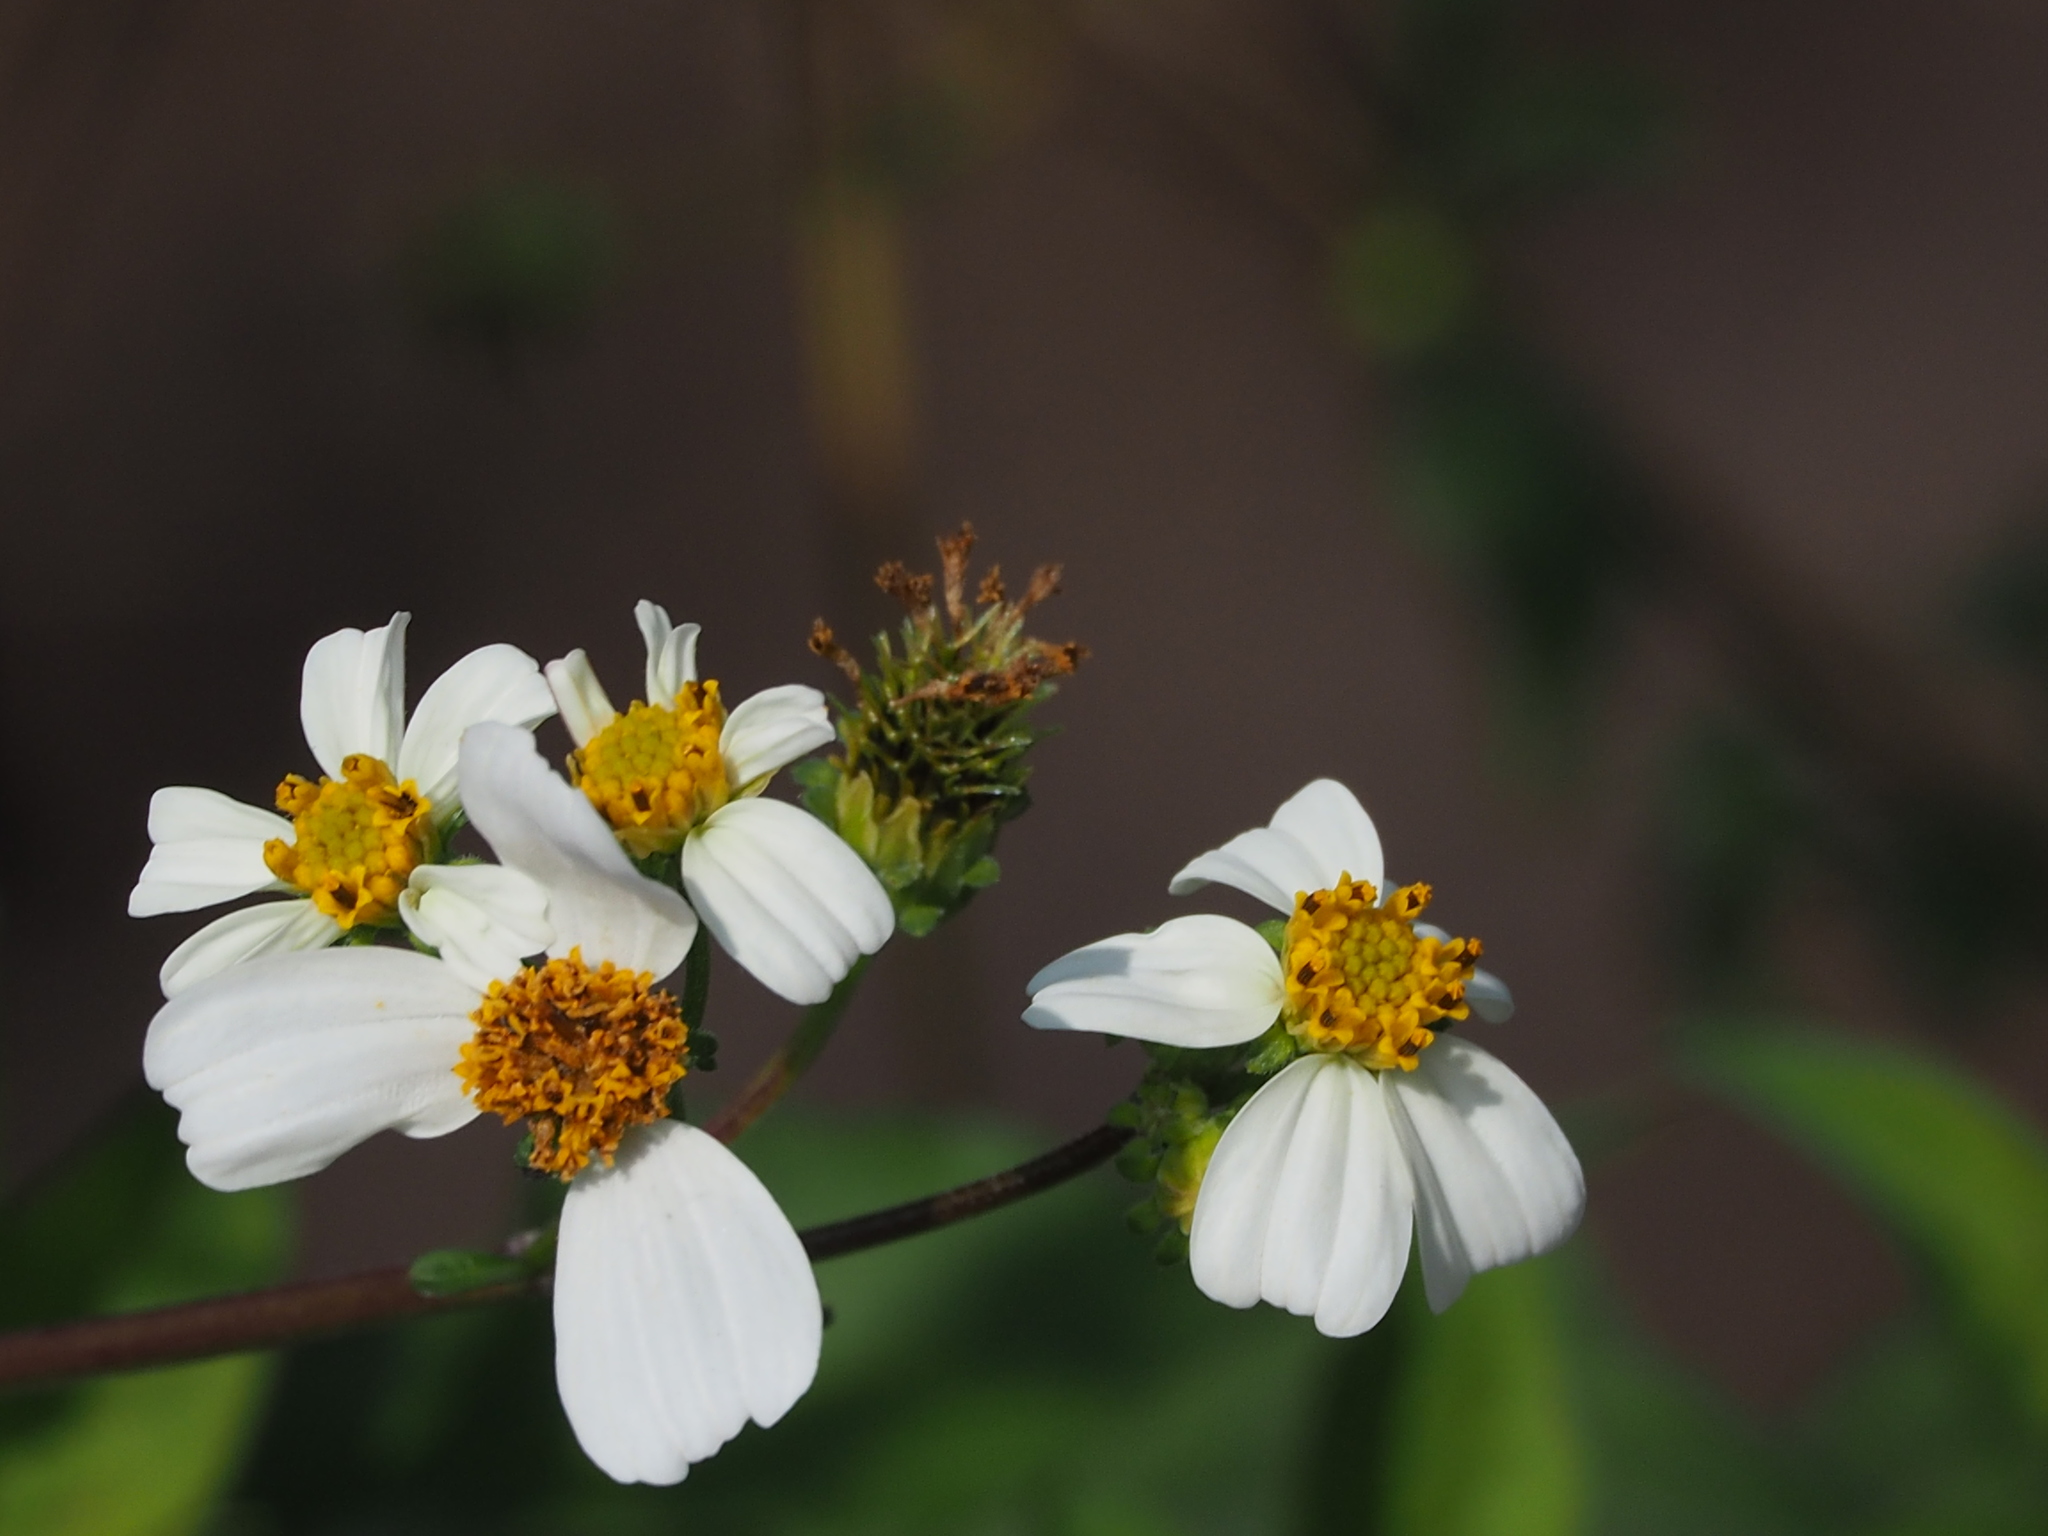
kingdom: Plantae
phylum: Tracheophyta
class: Magnoliopsida
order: Asterales
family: Asteraceae
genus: Bidens
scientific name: Bidens alba
